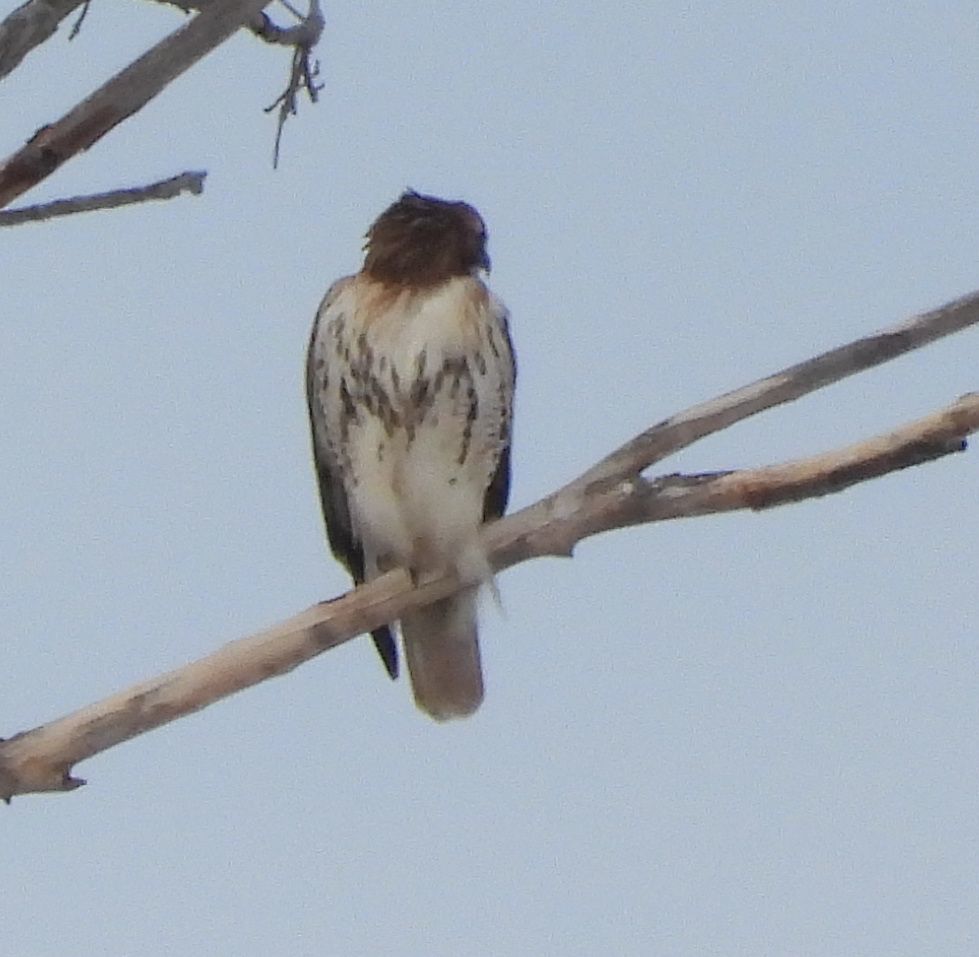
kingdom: Animalia
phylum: Chordata
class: Aves
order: Accipitriformes
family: Accipitridae
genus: Buteo
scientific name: Buteo jamaicensis
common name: Red-tailed hawk
